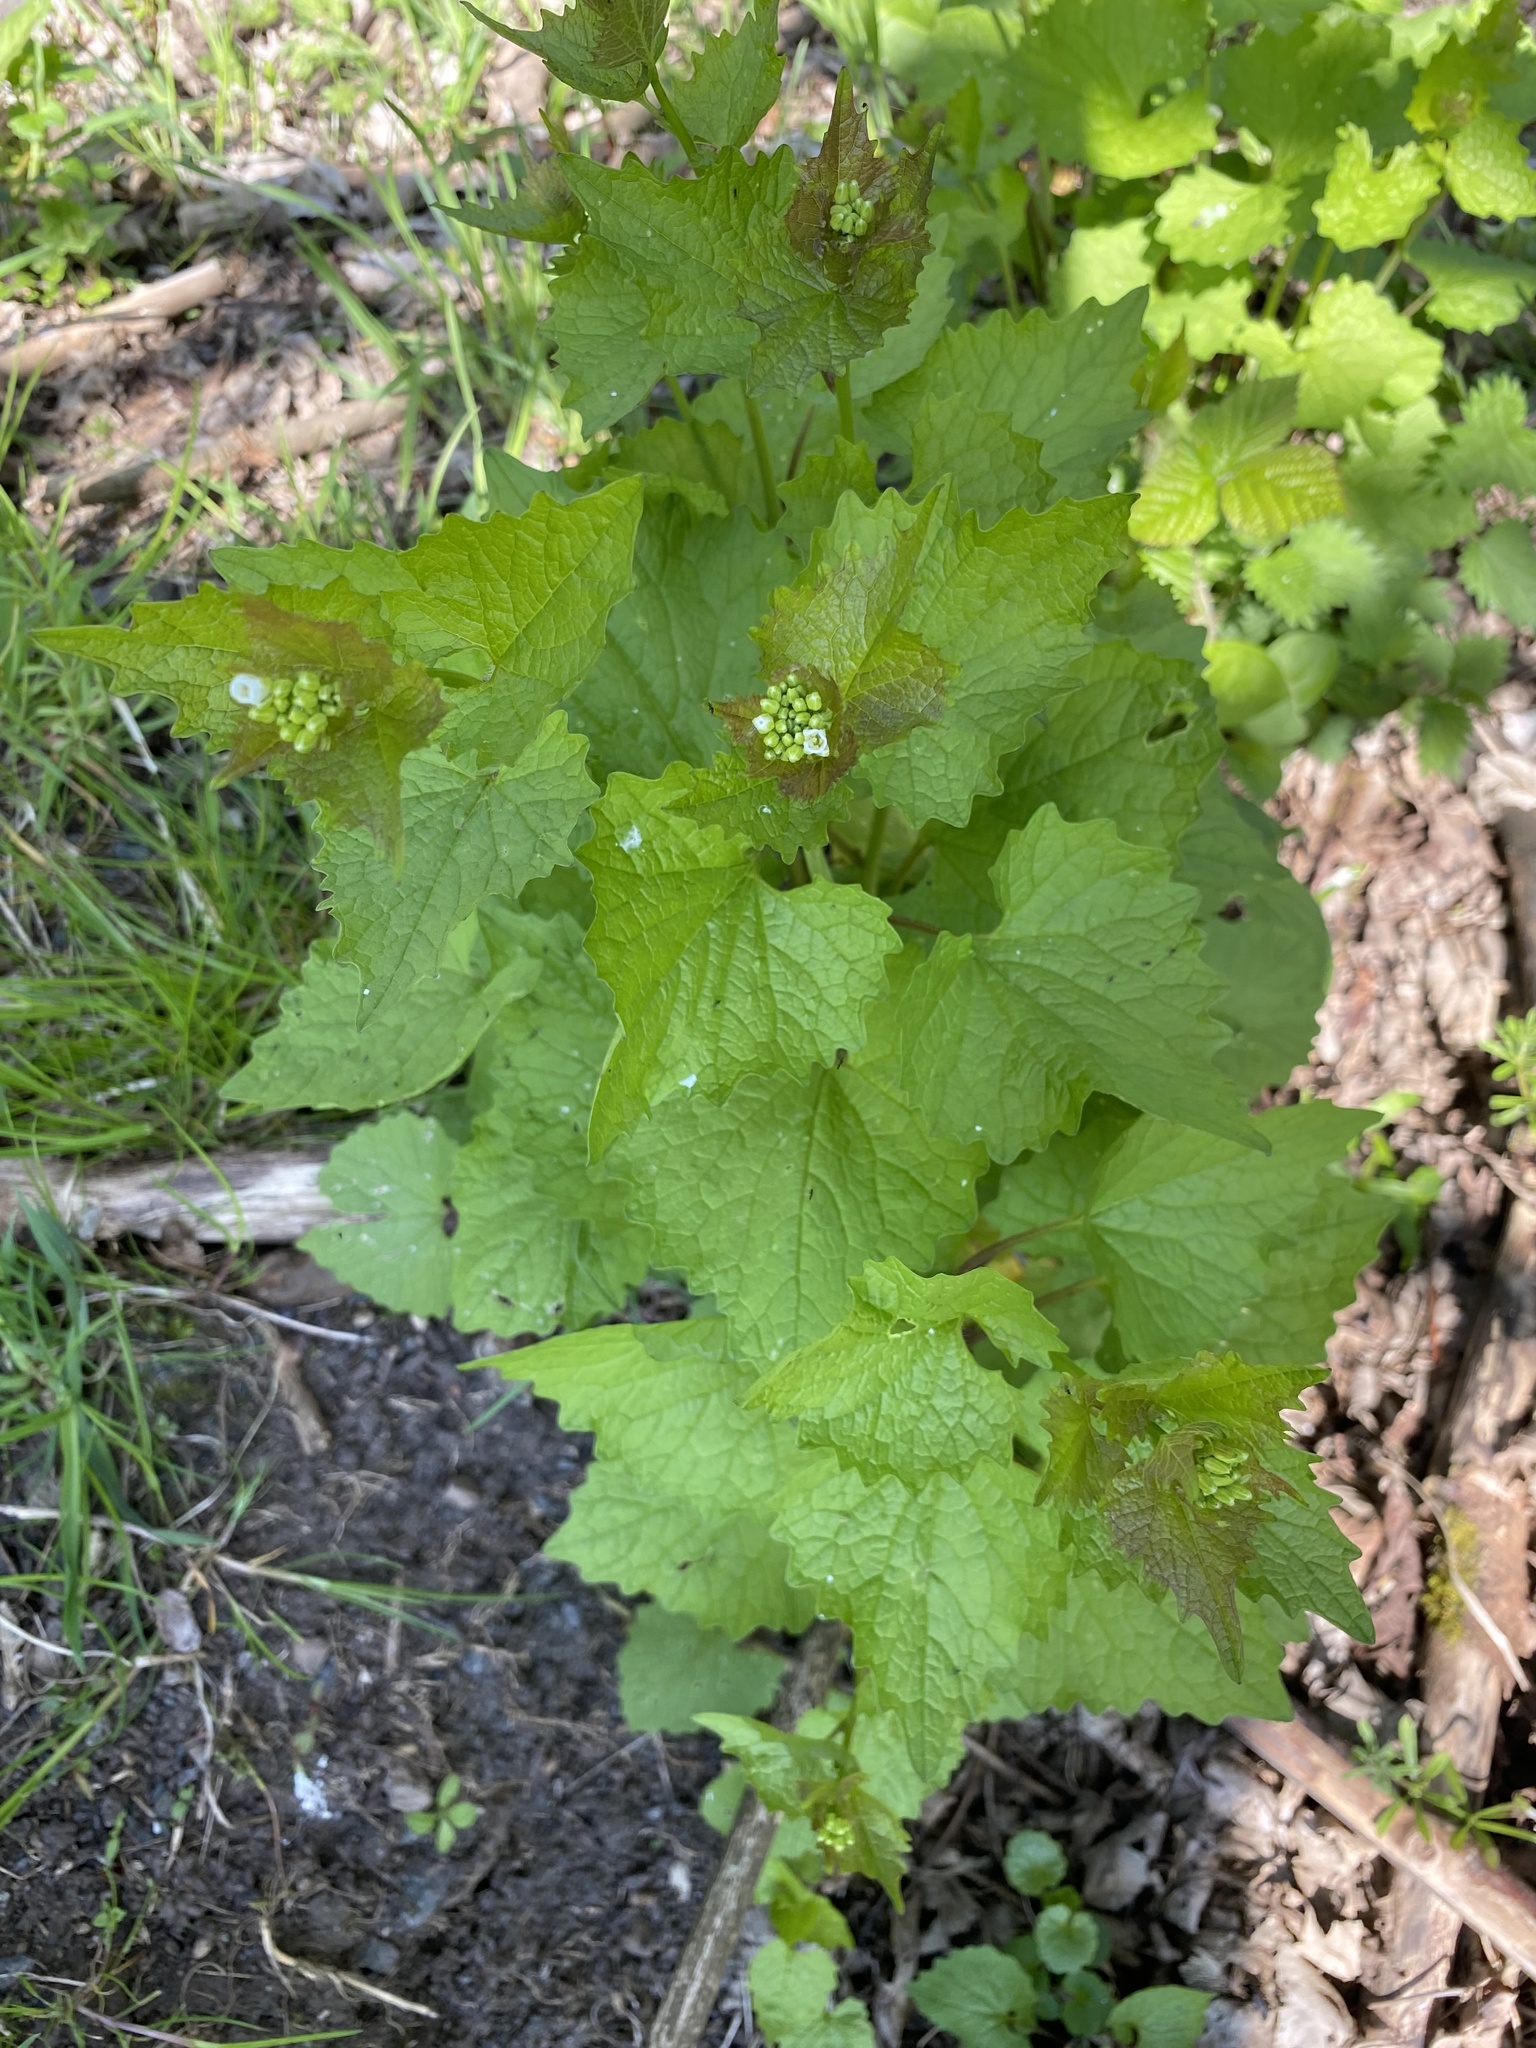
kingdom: Plantae
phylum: Tracheophyta
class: Magnoliopsida
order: Brassicales
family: Brassicaceae
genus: Alliaria
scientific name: Alliaria petiolata
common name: Garlic mustard
